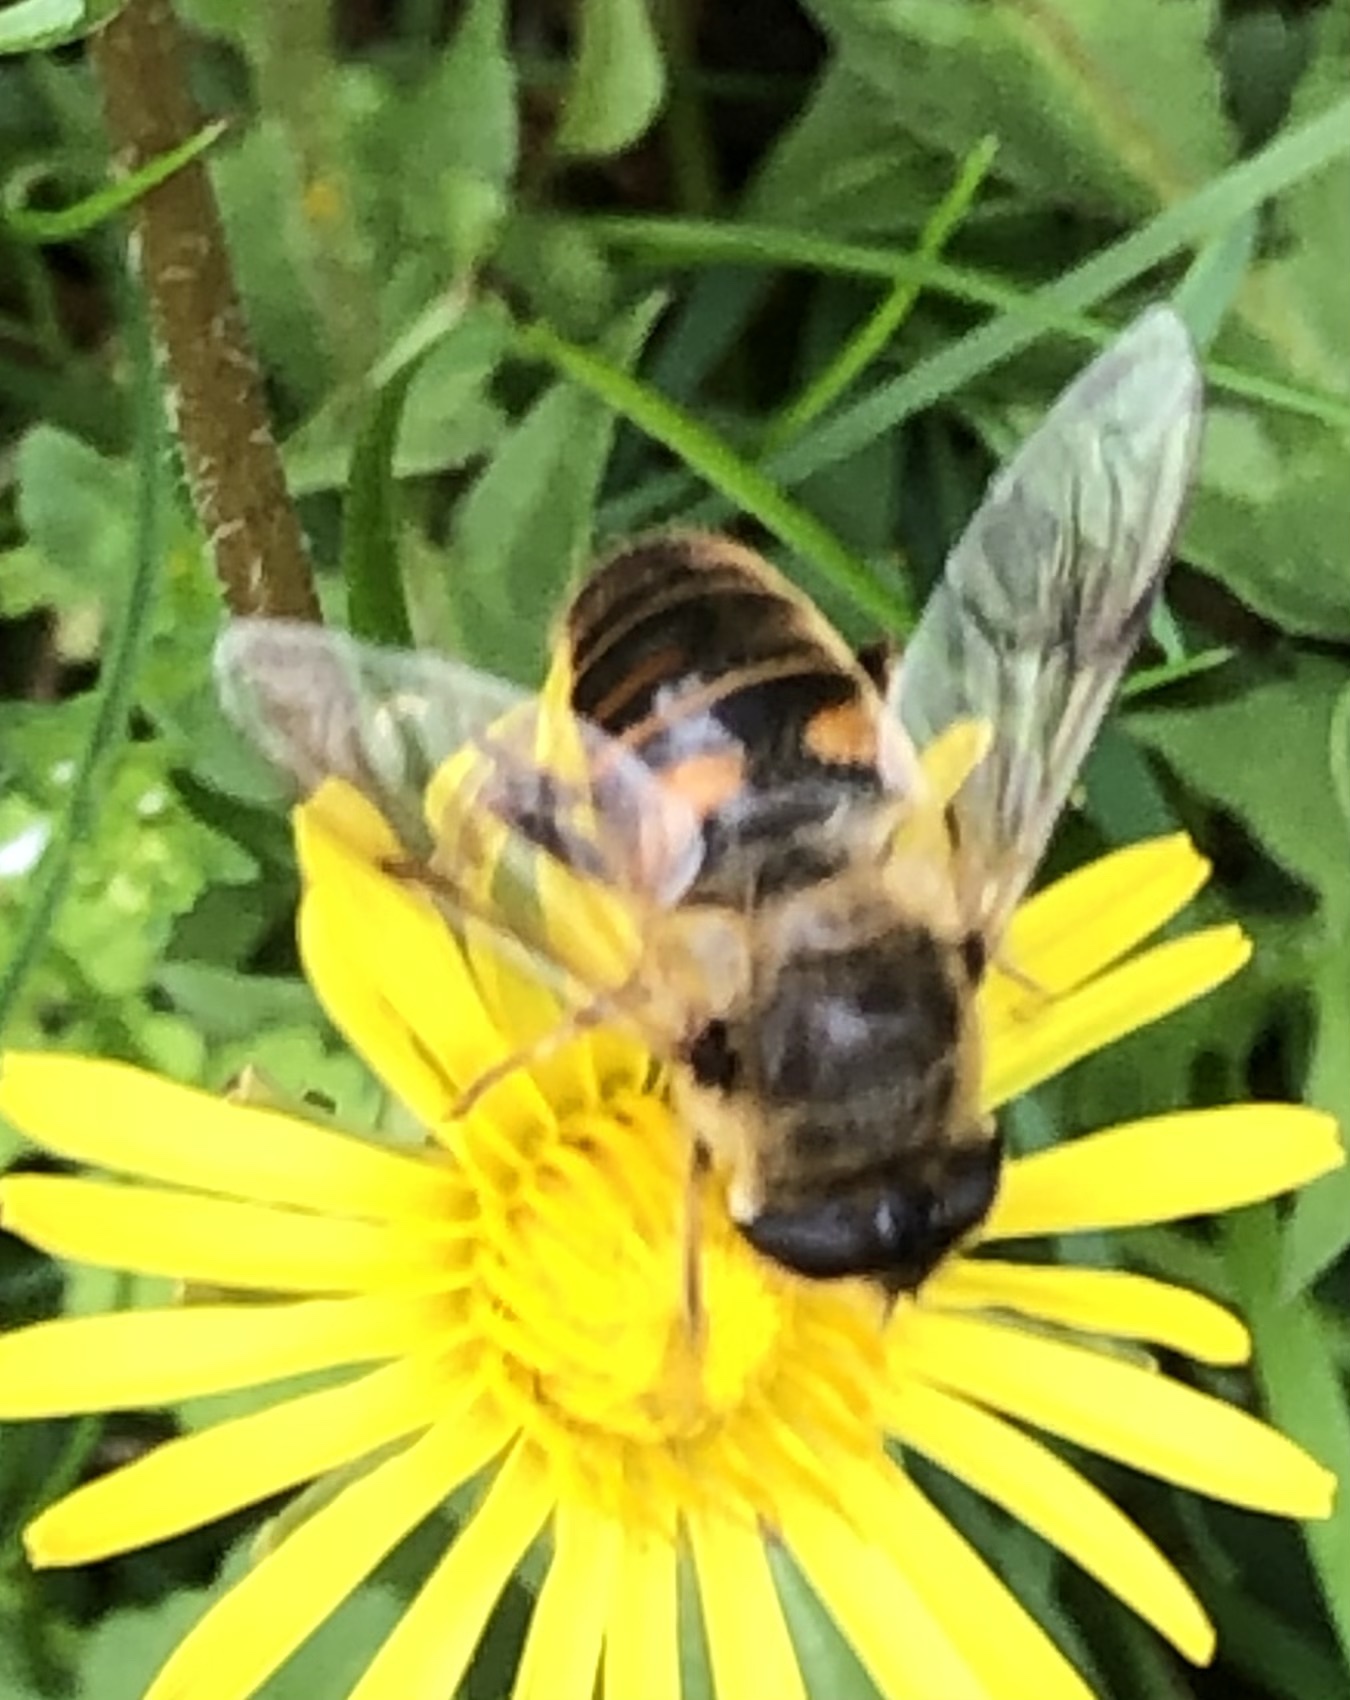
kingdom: Animalia
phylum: Arthropoda
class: Insecta
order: Diptera
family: Syrphidae
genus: Eristalis
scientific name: Eristalis tenax
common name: Drone fly
